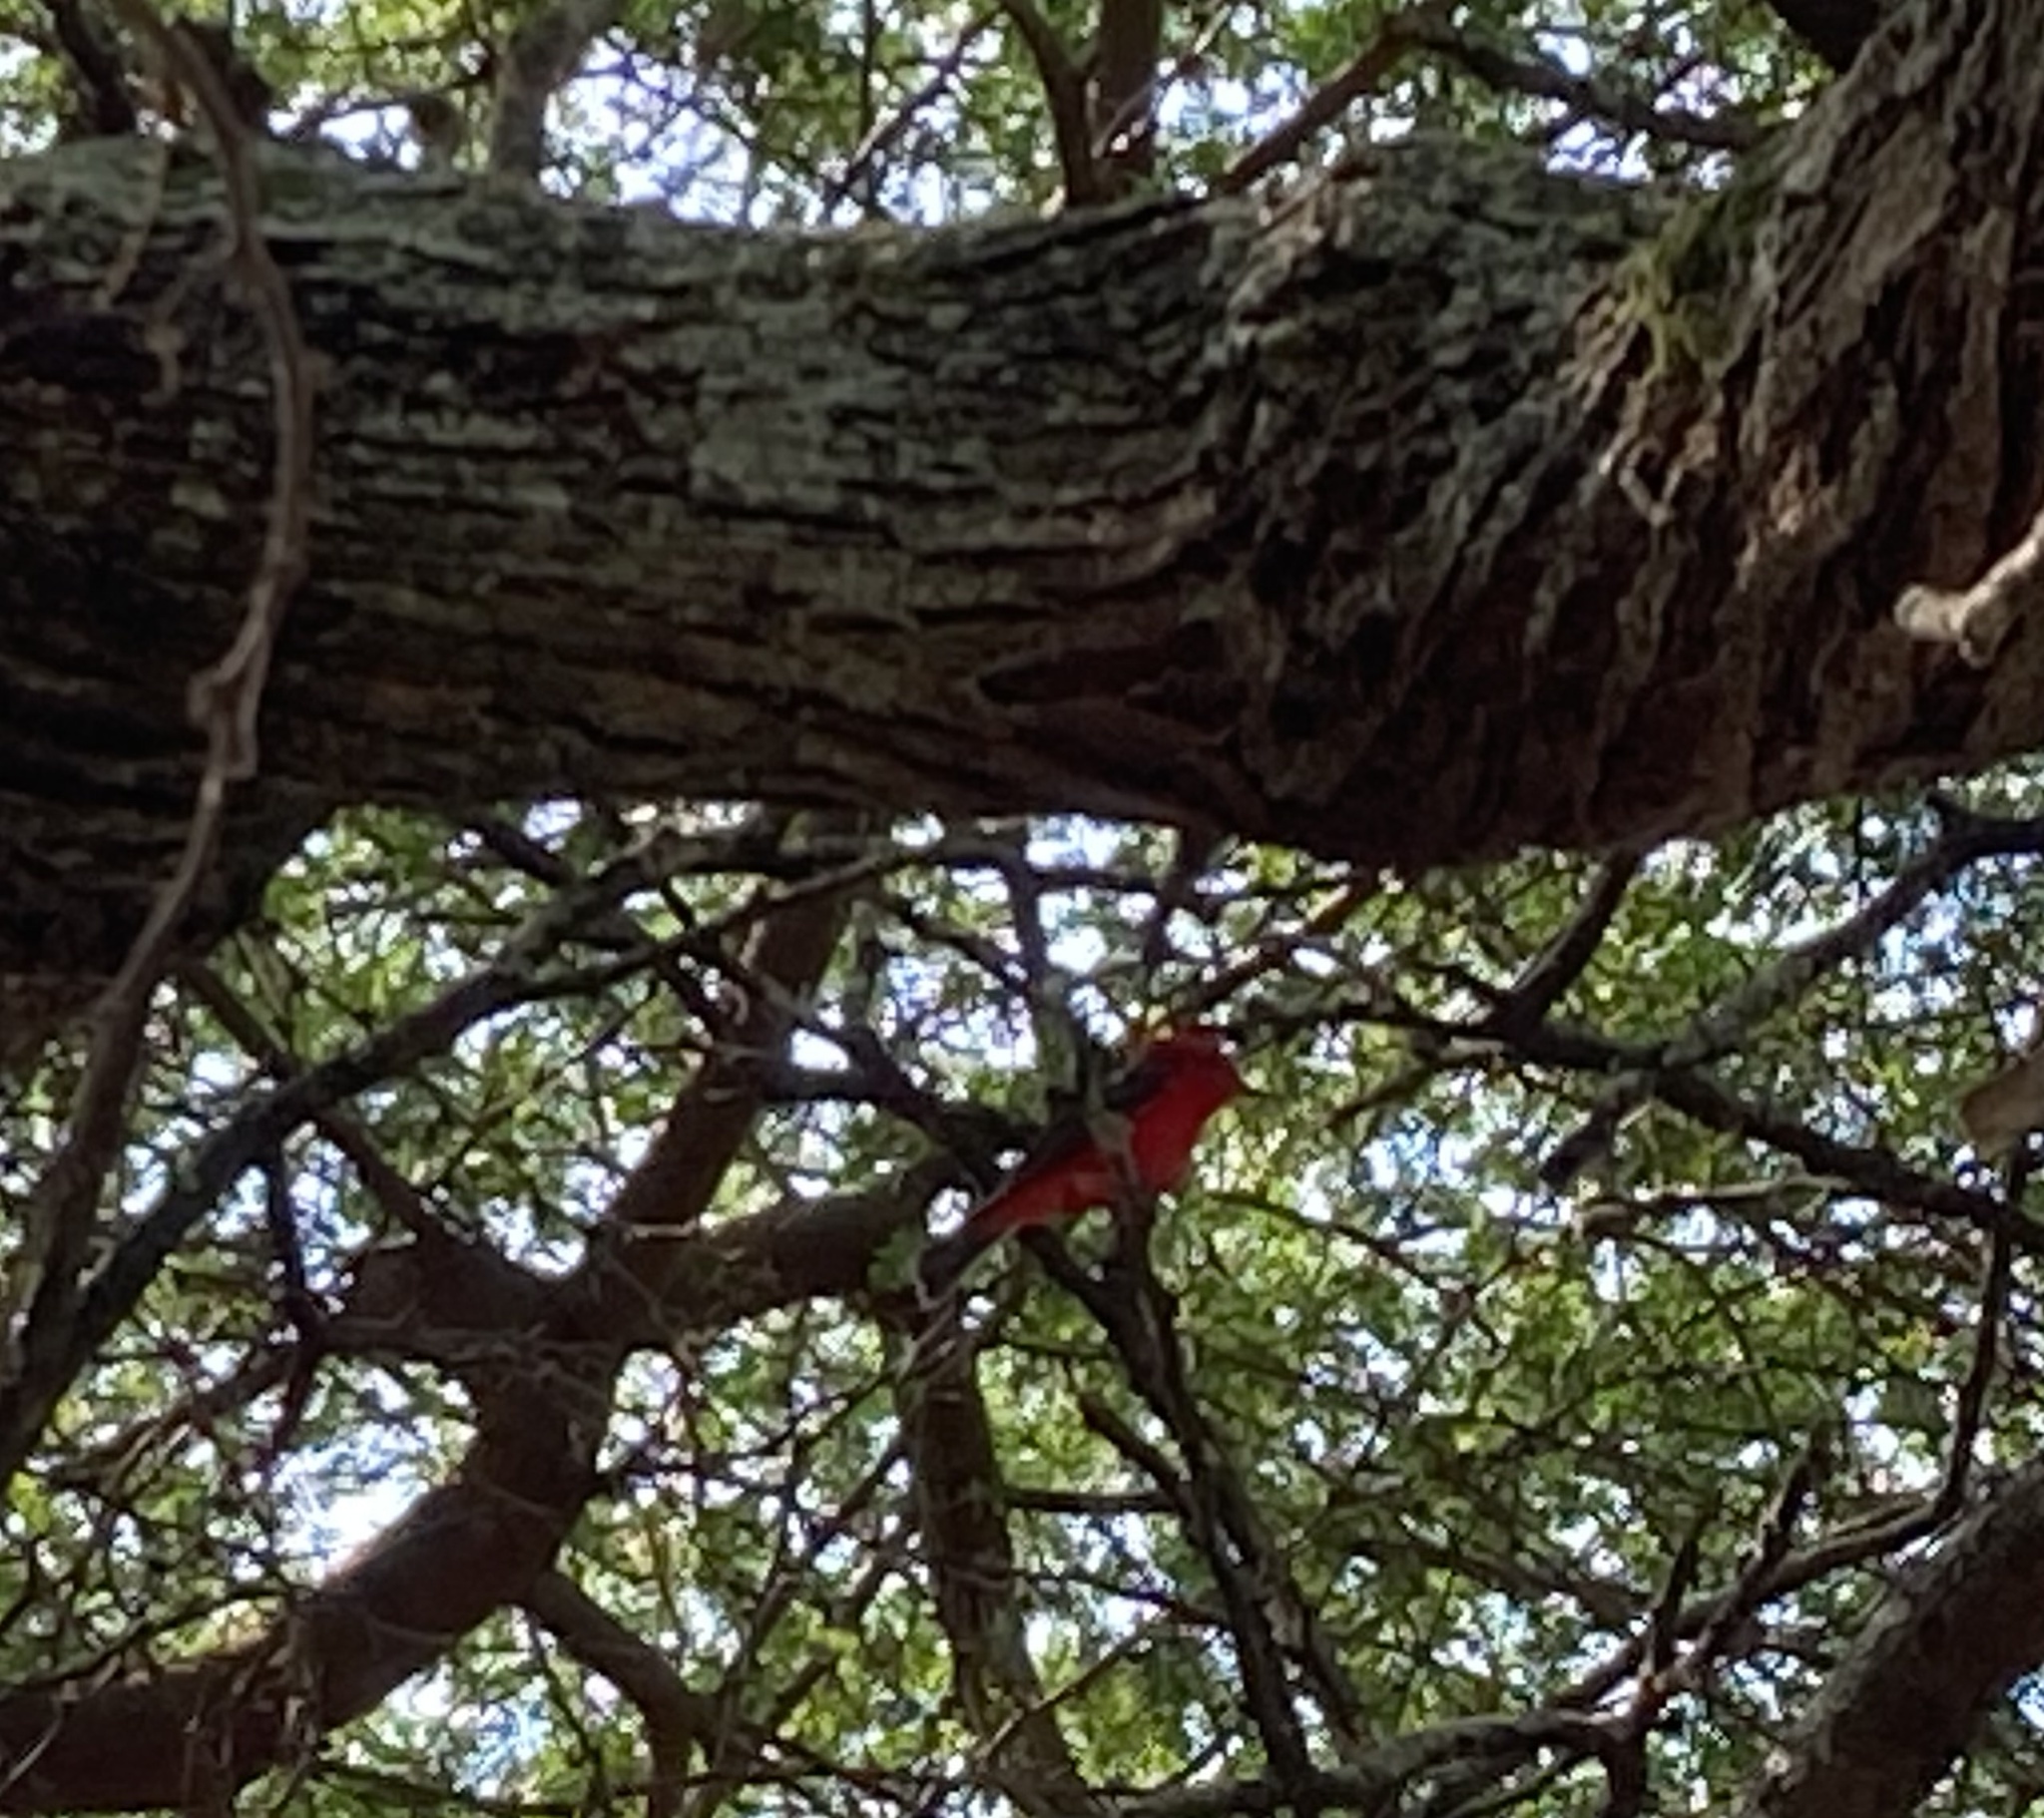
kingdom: Animalia
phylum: Chordata
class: Aves
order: Passeriformes
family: Tyrannidae
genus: Pyrocephalus
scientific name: Pyrocephalus rubinus
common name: Vermilion flycatcher
